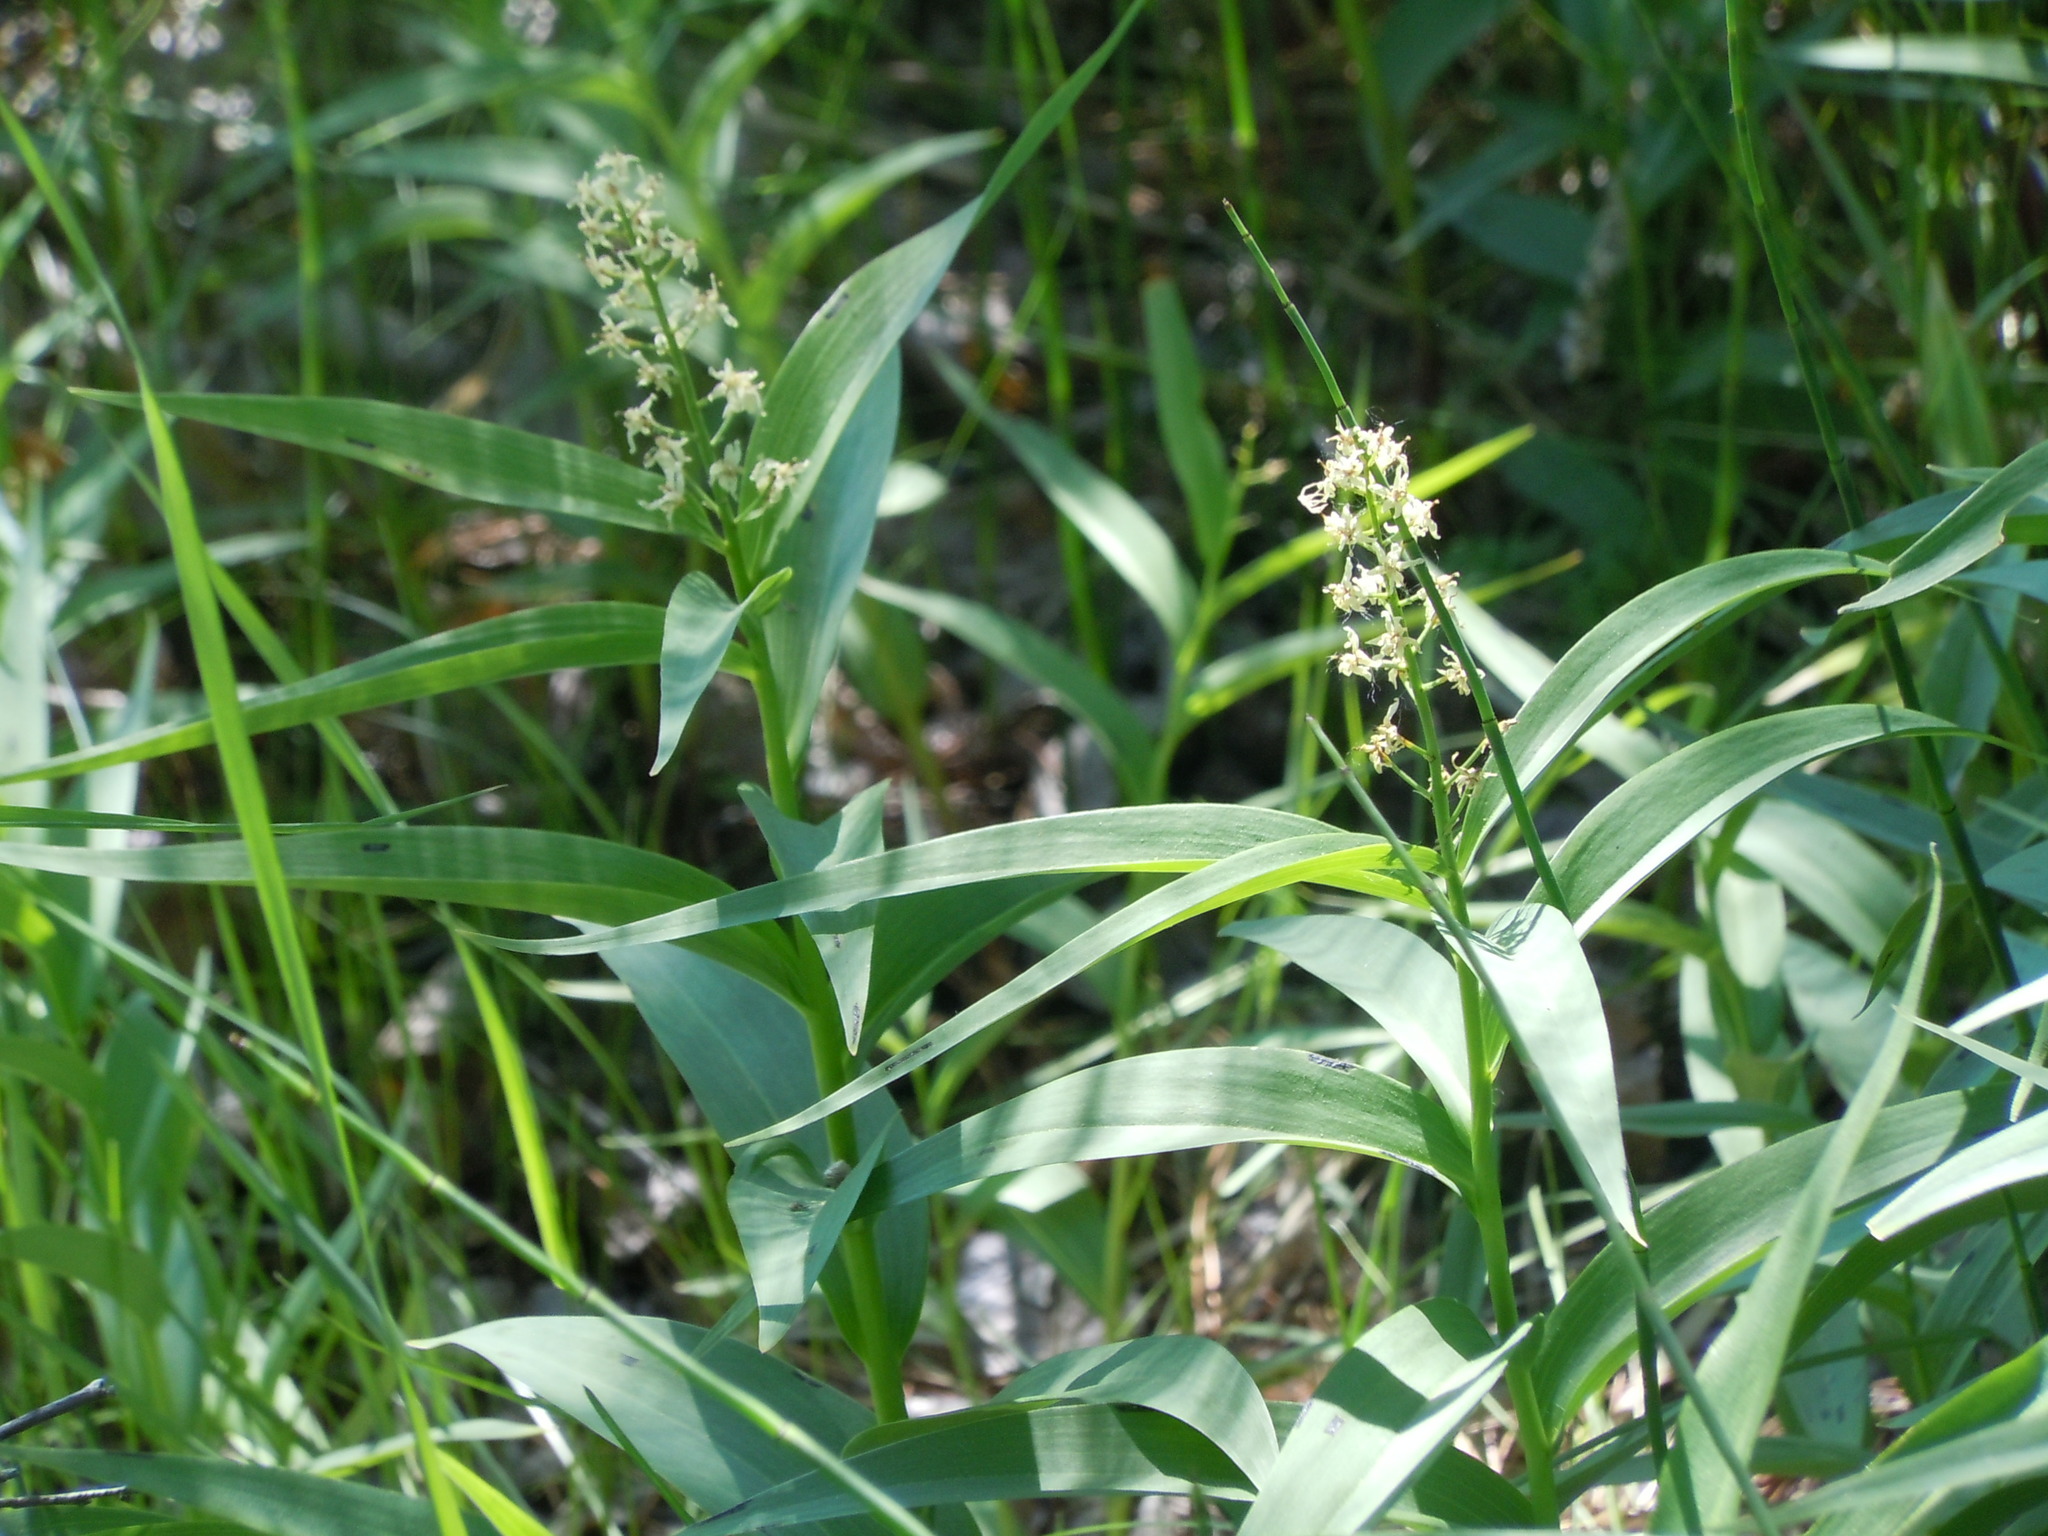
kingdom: Plantae
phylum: Tracheophyta
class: Liliopsida
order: Asparagales
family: Asparagaceae
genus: Maianthemum
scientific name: Maianthemum stellatum
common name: Little false solomon's seal
